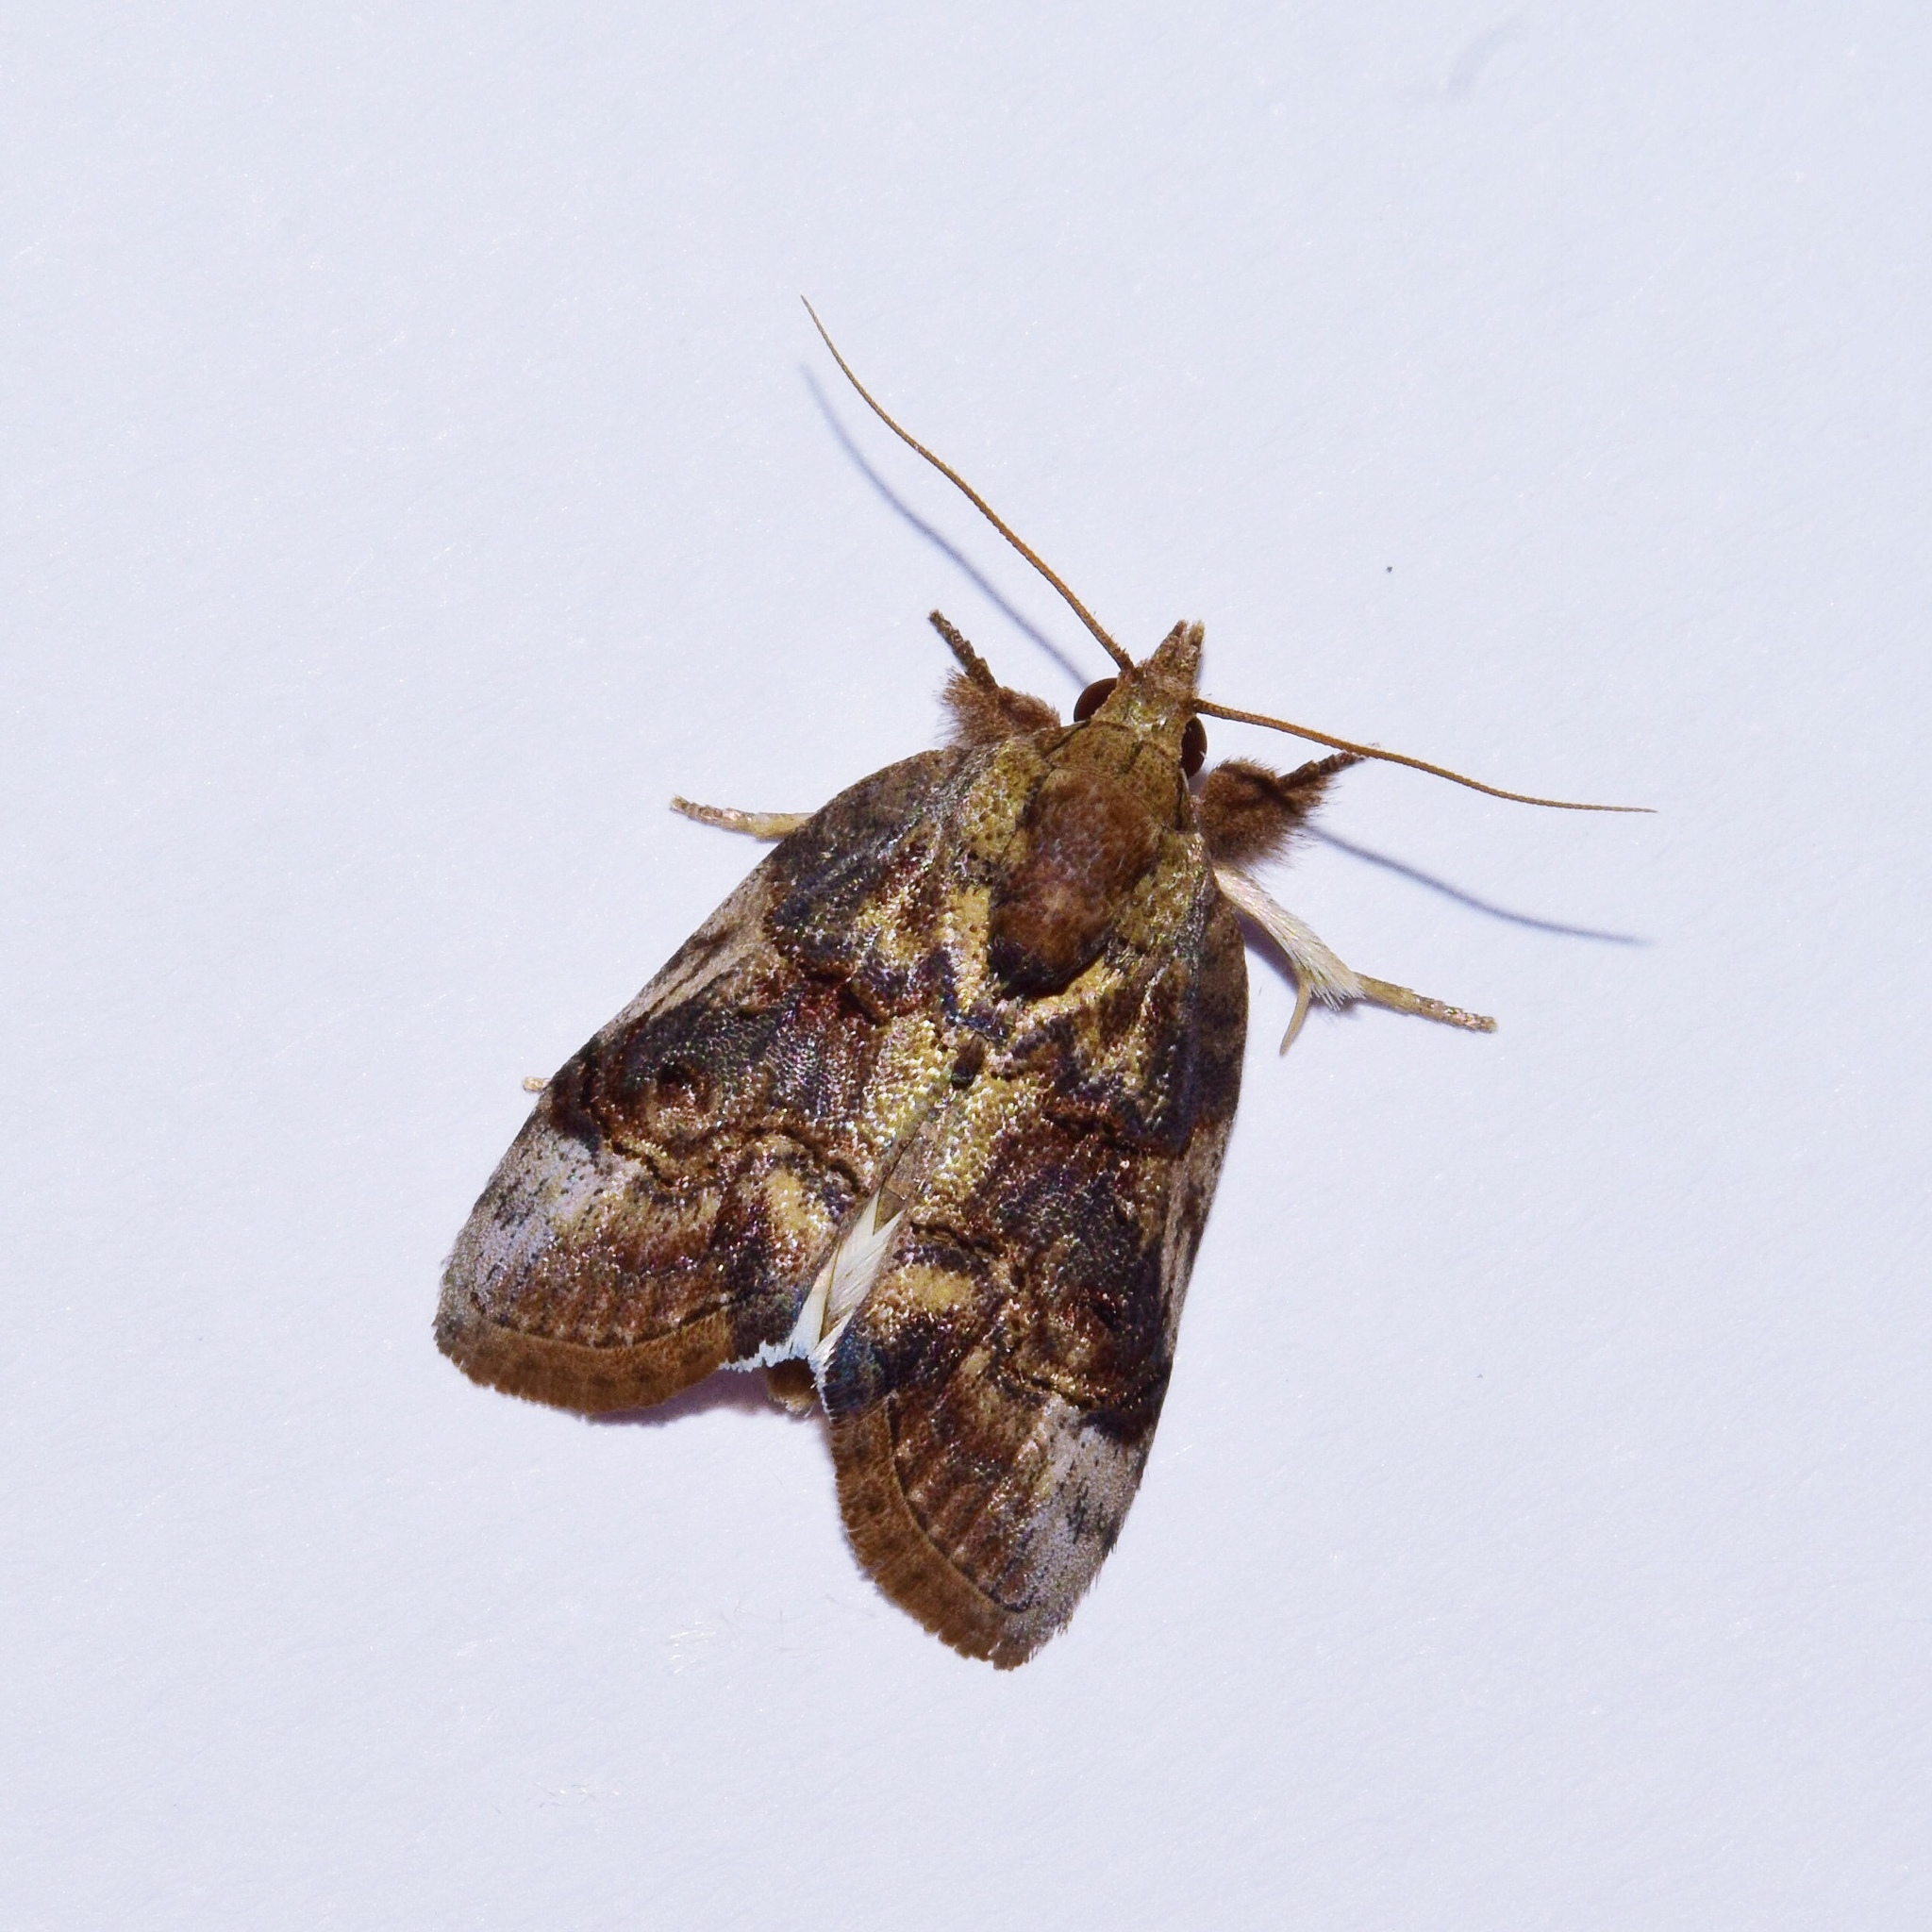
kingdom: Animalia
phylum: Arthropoda
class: Insecta
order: Lepidoptera
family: Nolidae
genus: Selepa
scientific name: Selepa transvalica
